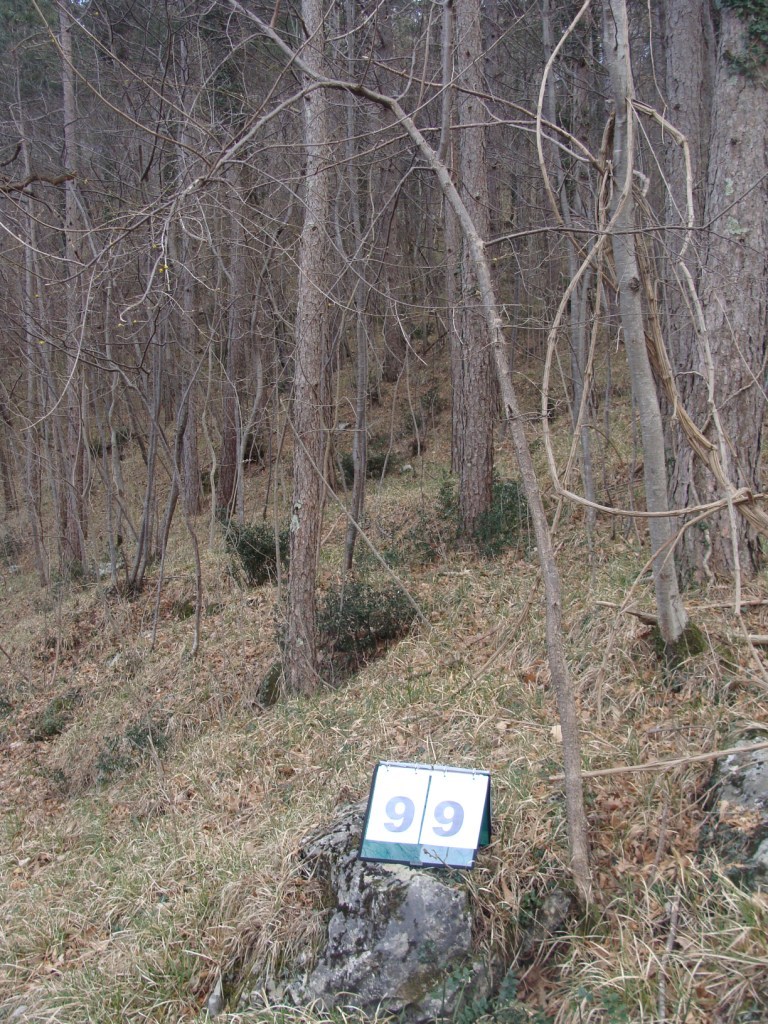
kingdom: Plantae
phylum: Tracheophyta
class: Magnoliopsida
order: Cornales
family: Cornaceae
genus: Cornus
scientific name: Cornus mas
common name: Cornelian-cherry
